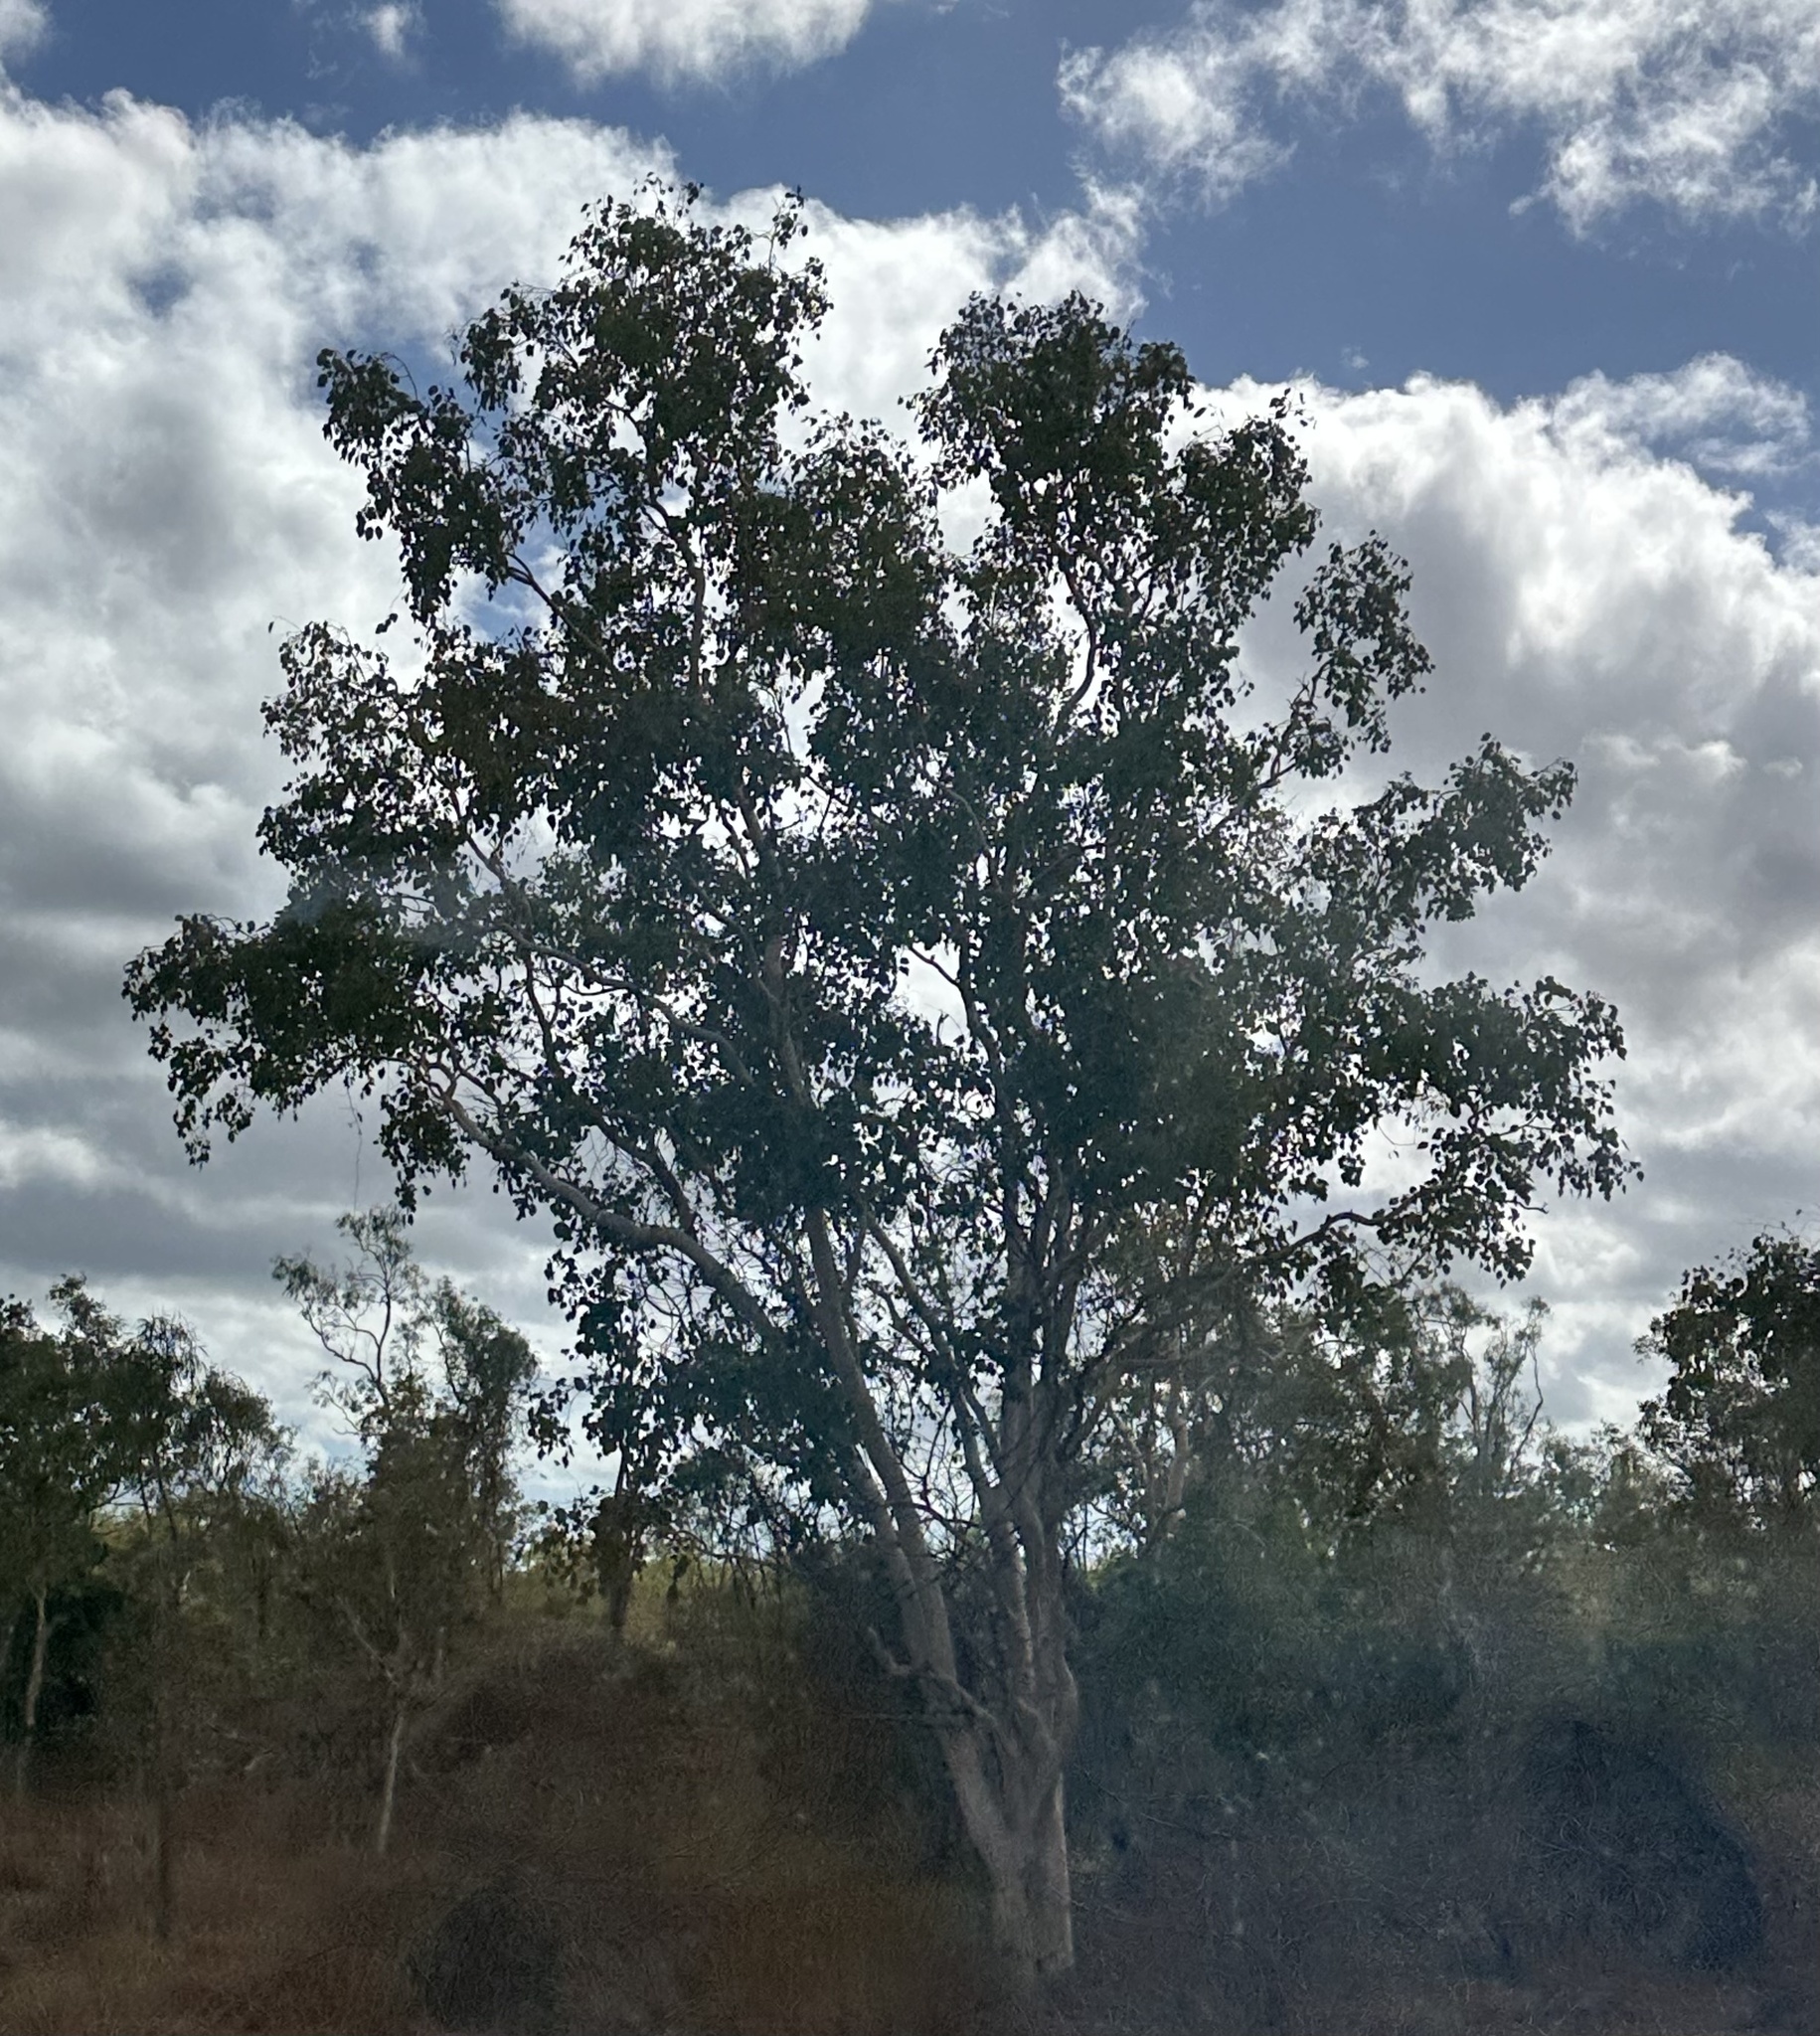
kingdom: Plantae
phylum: Tracheophyta
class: Magnoliopsida
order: Myrtales
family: Myrtaceae
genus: Eucalyptus
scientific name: Eucalyptus platyphylla
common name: Poplar-gum
